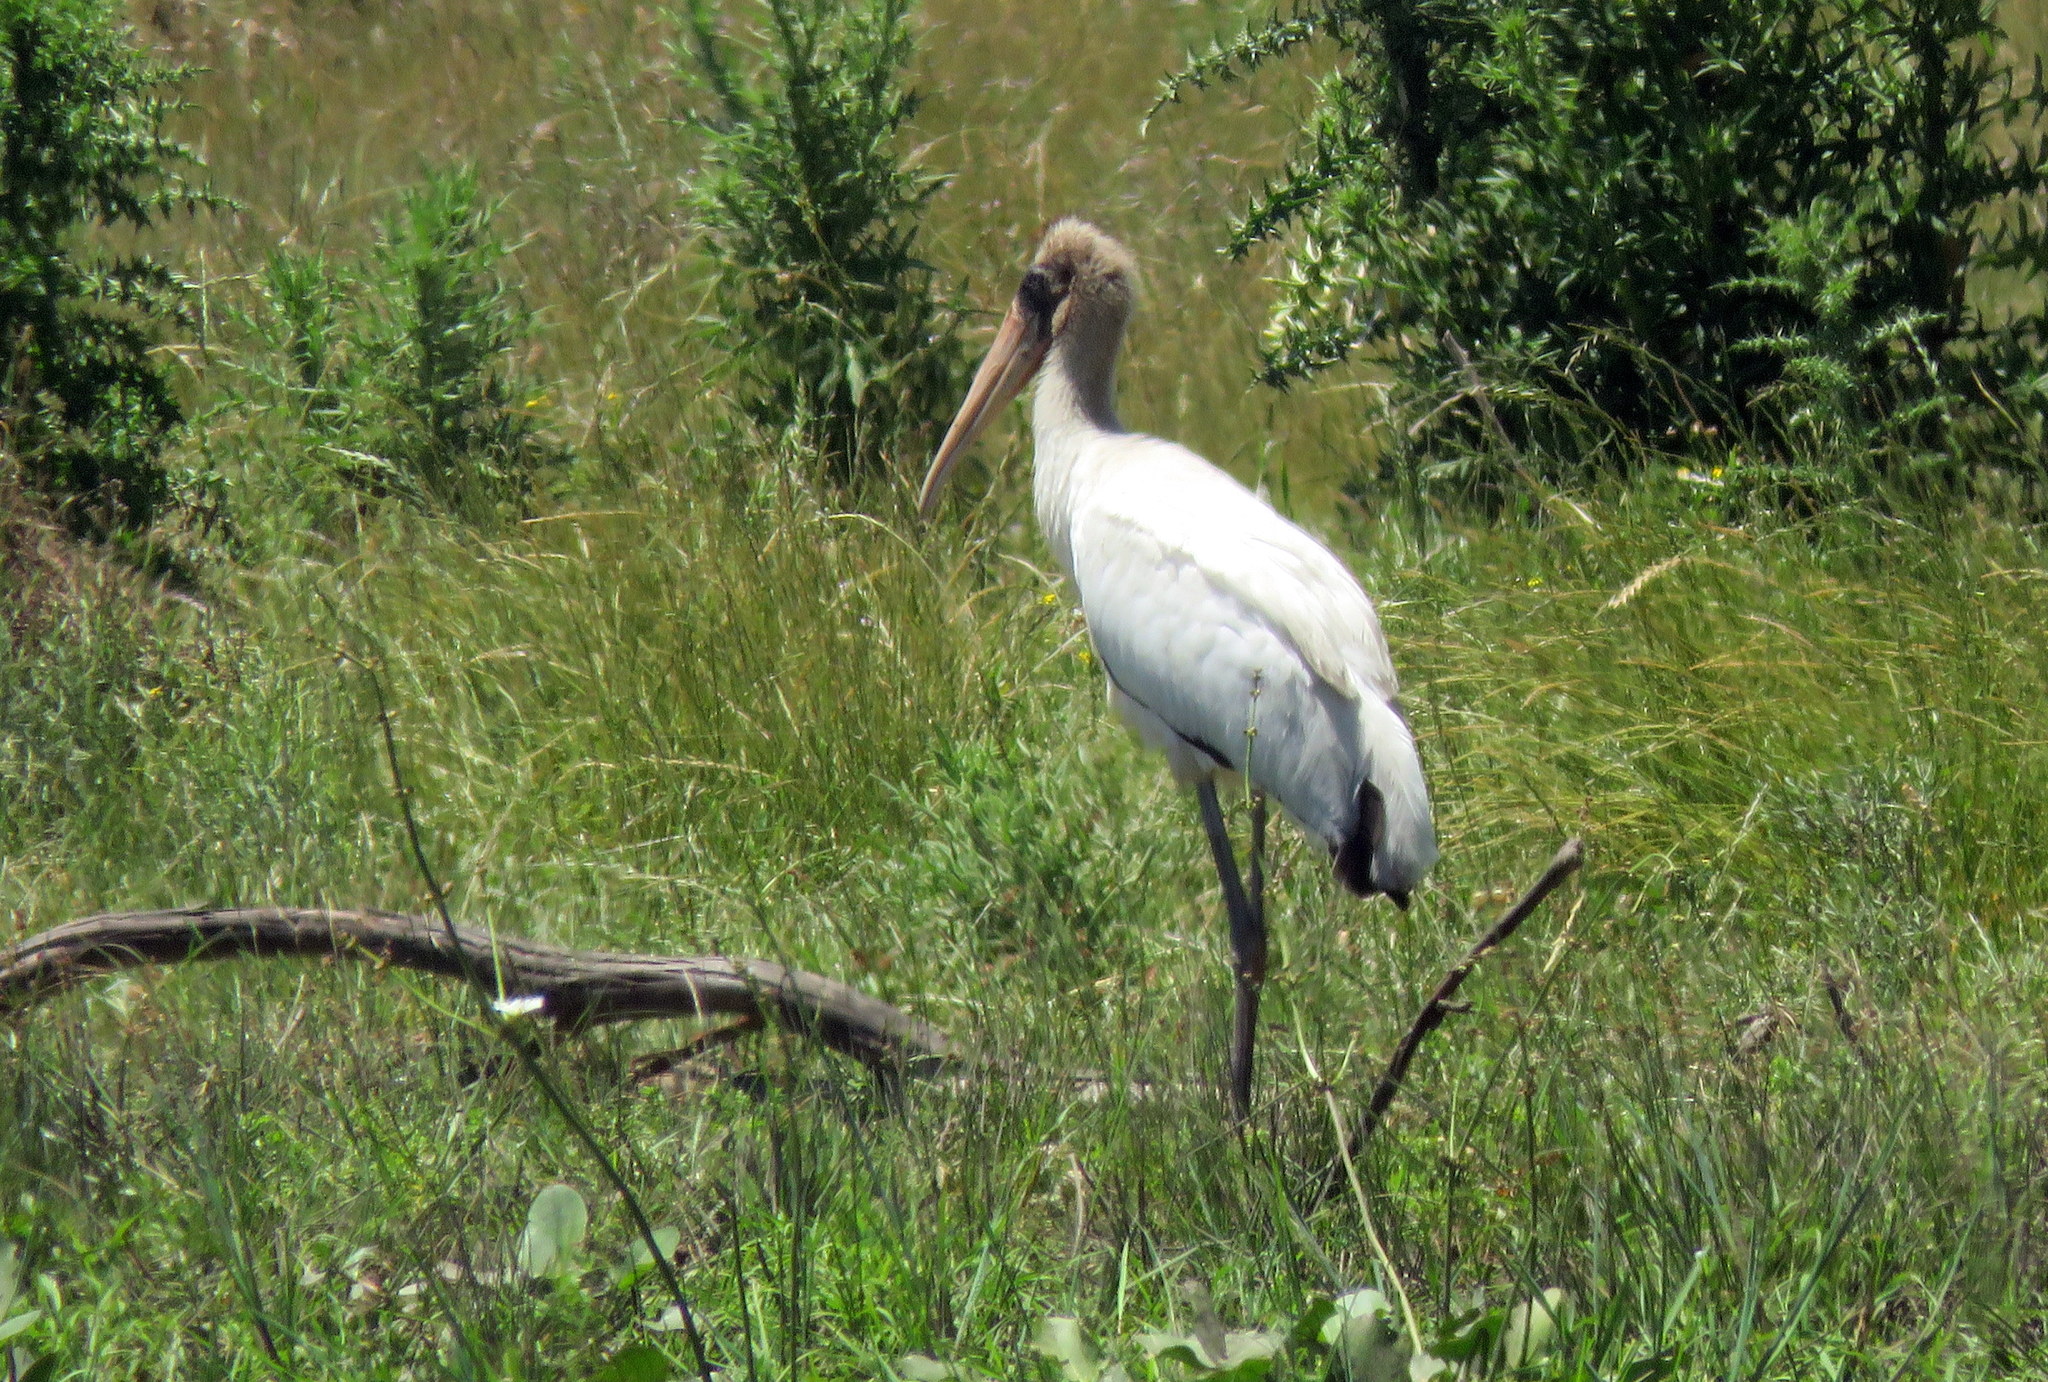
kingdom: Animalia
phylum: Chordata
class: Aves
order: Ciconiiformes
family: Ciconiidae
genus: Mycteria
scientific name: Mycteria americana
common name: Wood stork
